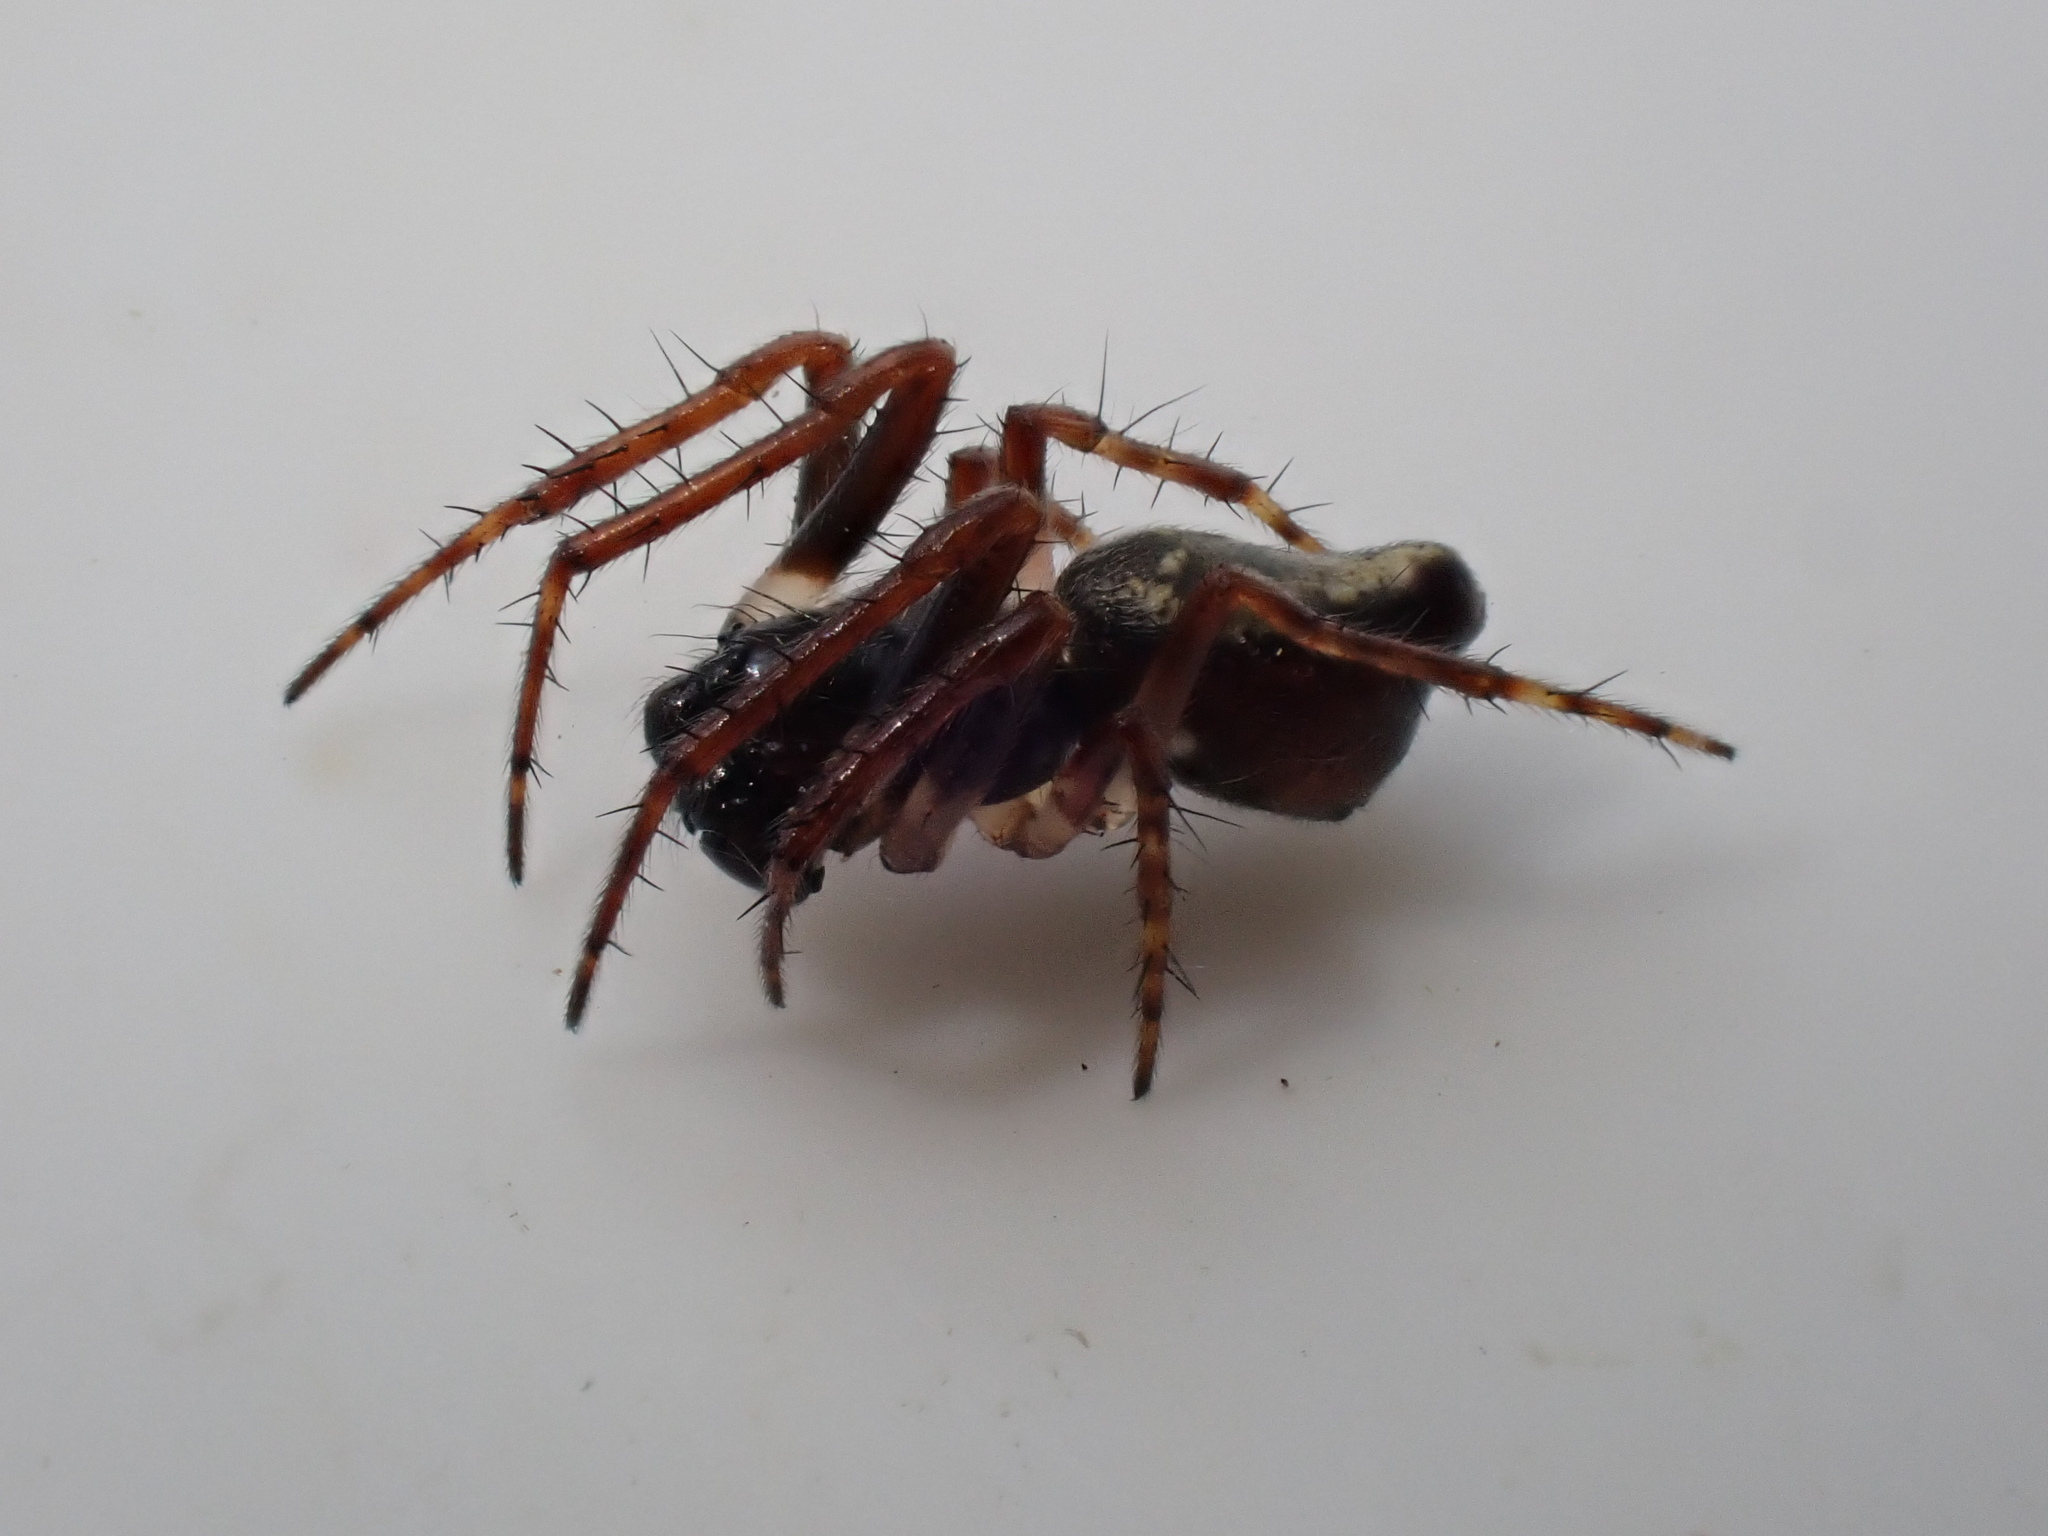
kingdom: Animalia
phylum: Arthropoda
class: Arachnida
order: Araneae
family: Araneidae
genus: Cyclosa
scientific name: Cyclosa conica
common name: Conical trashline orbweaver
